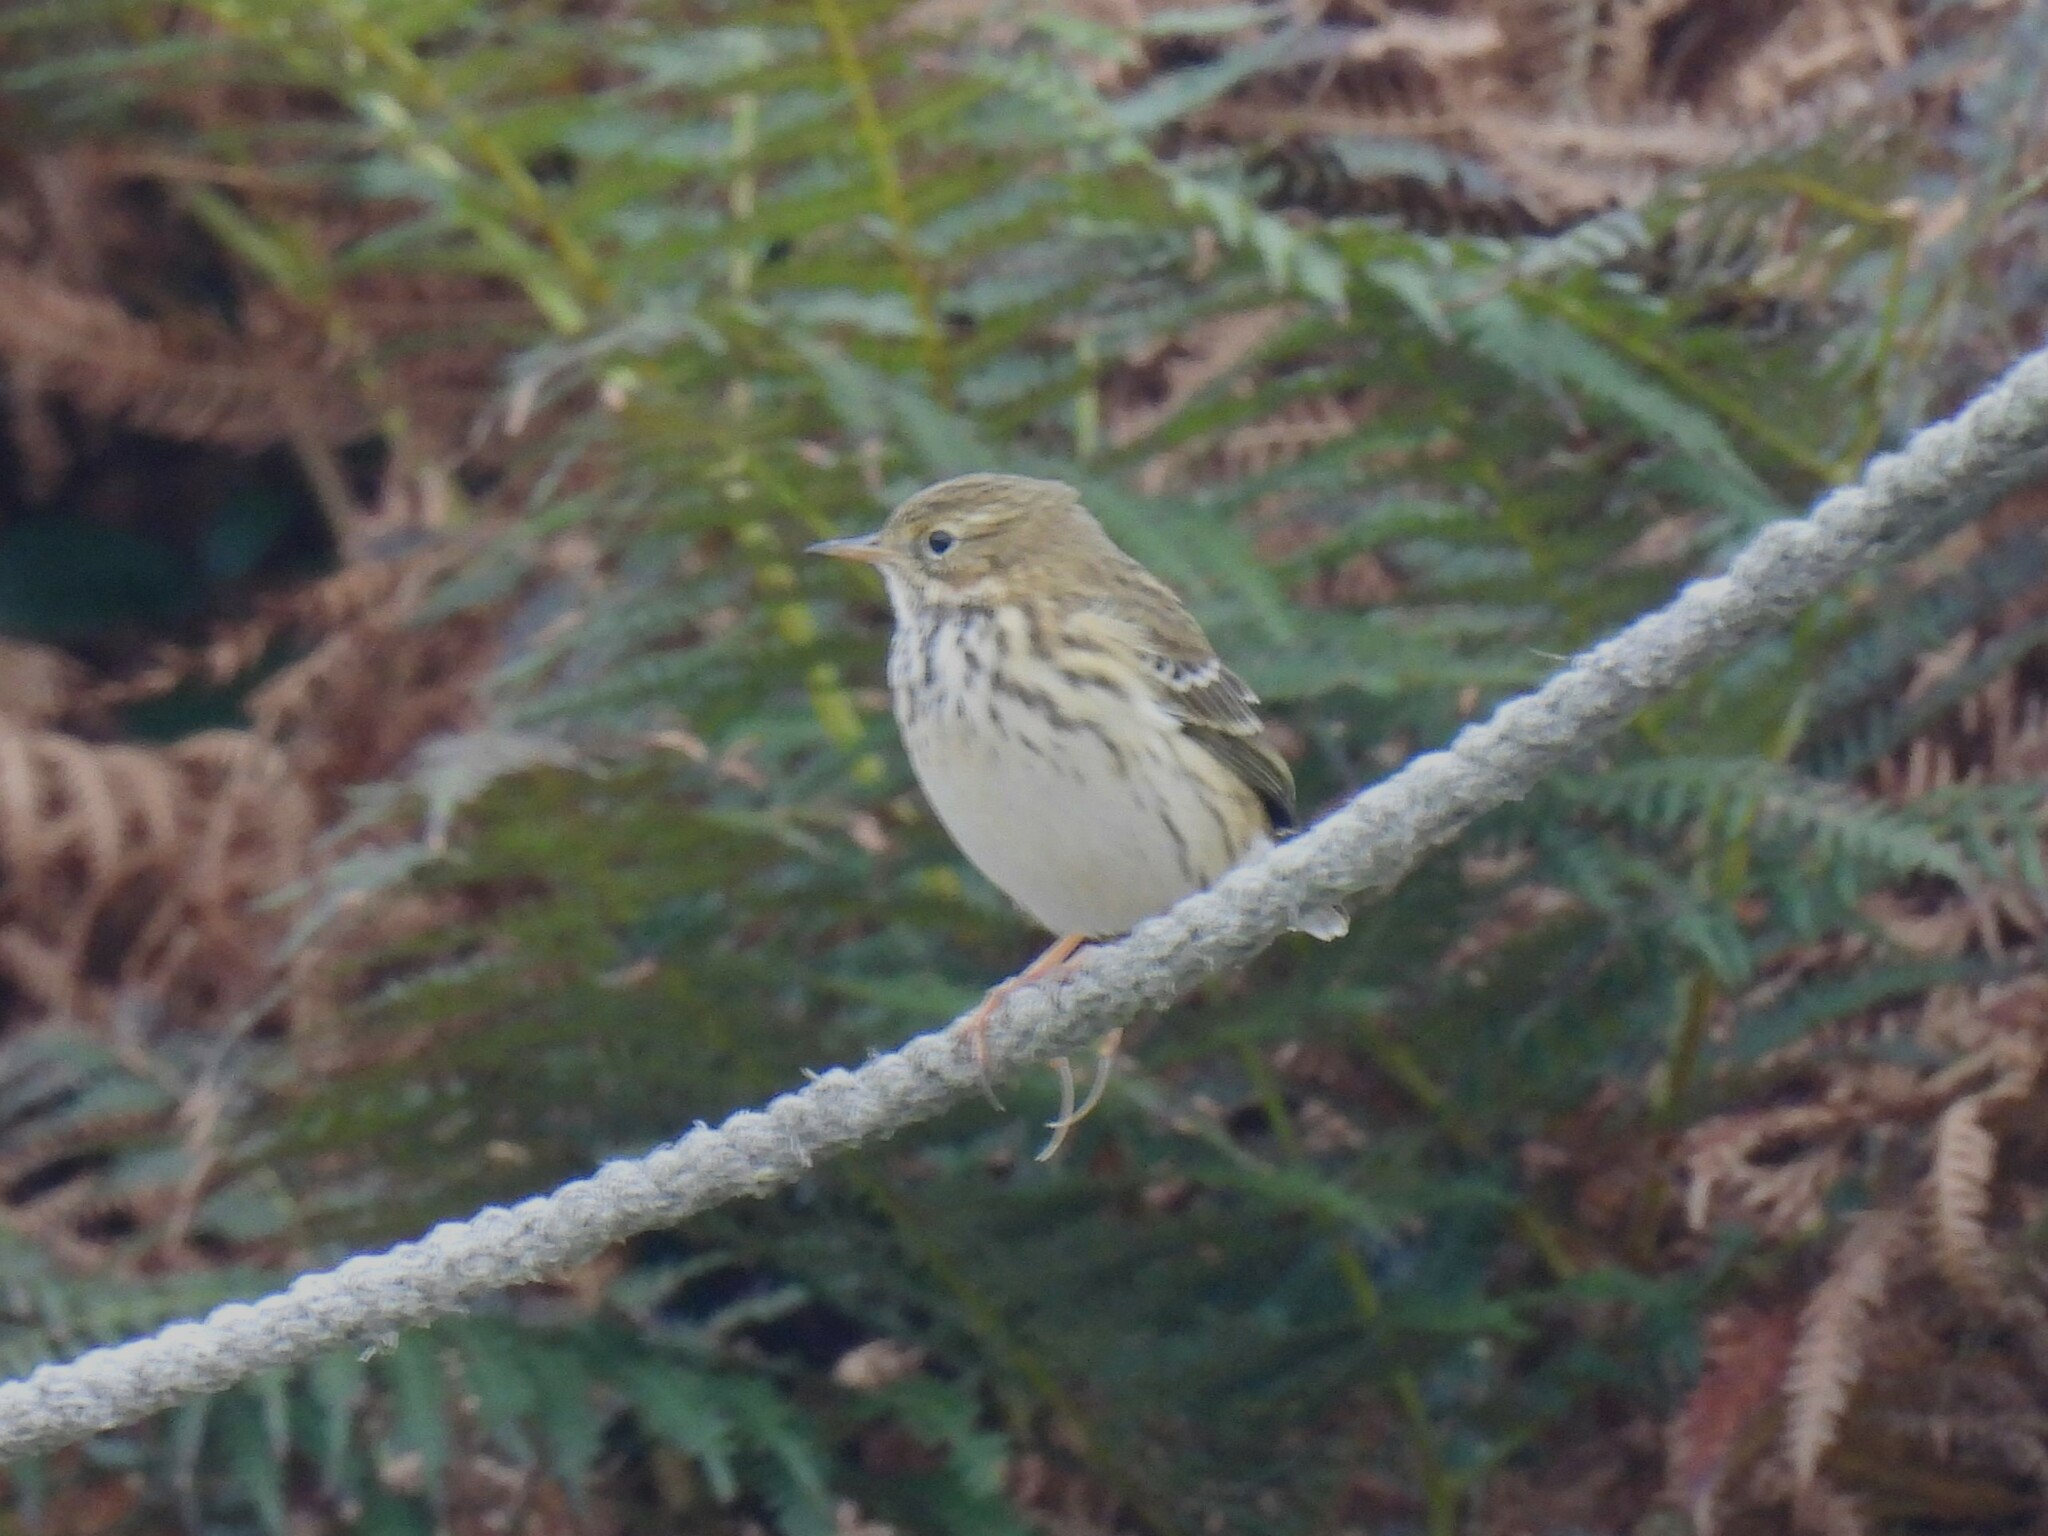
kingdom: Animalia
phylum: Chordata
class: Aves
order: Passeriformes
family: Motacillidae
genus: Anthus
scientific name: Anthus pratensis
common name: Meadow pipit
